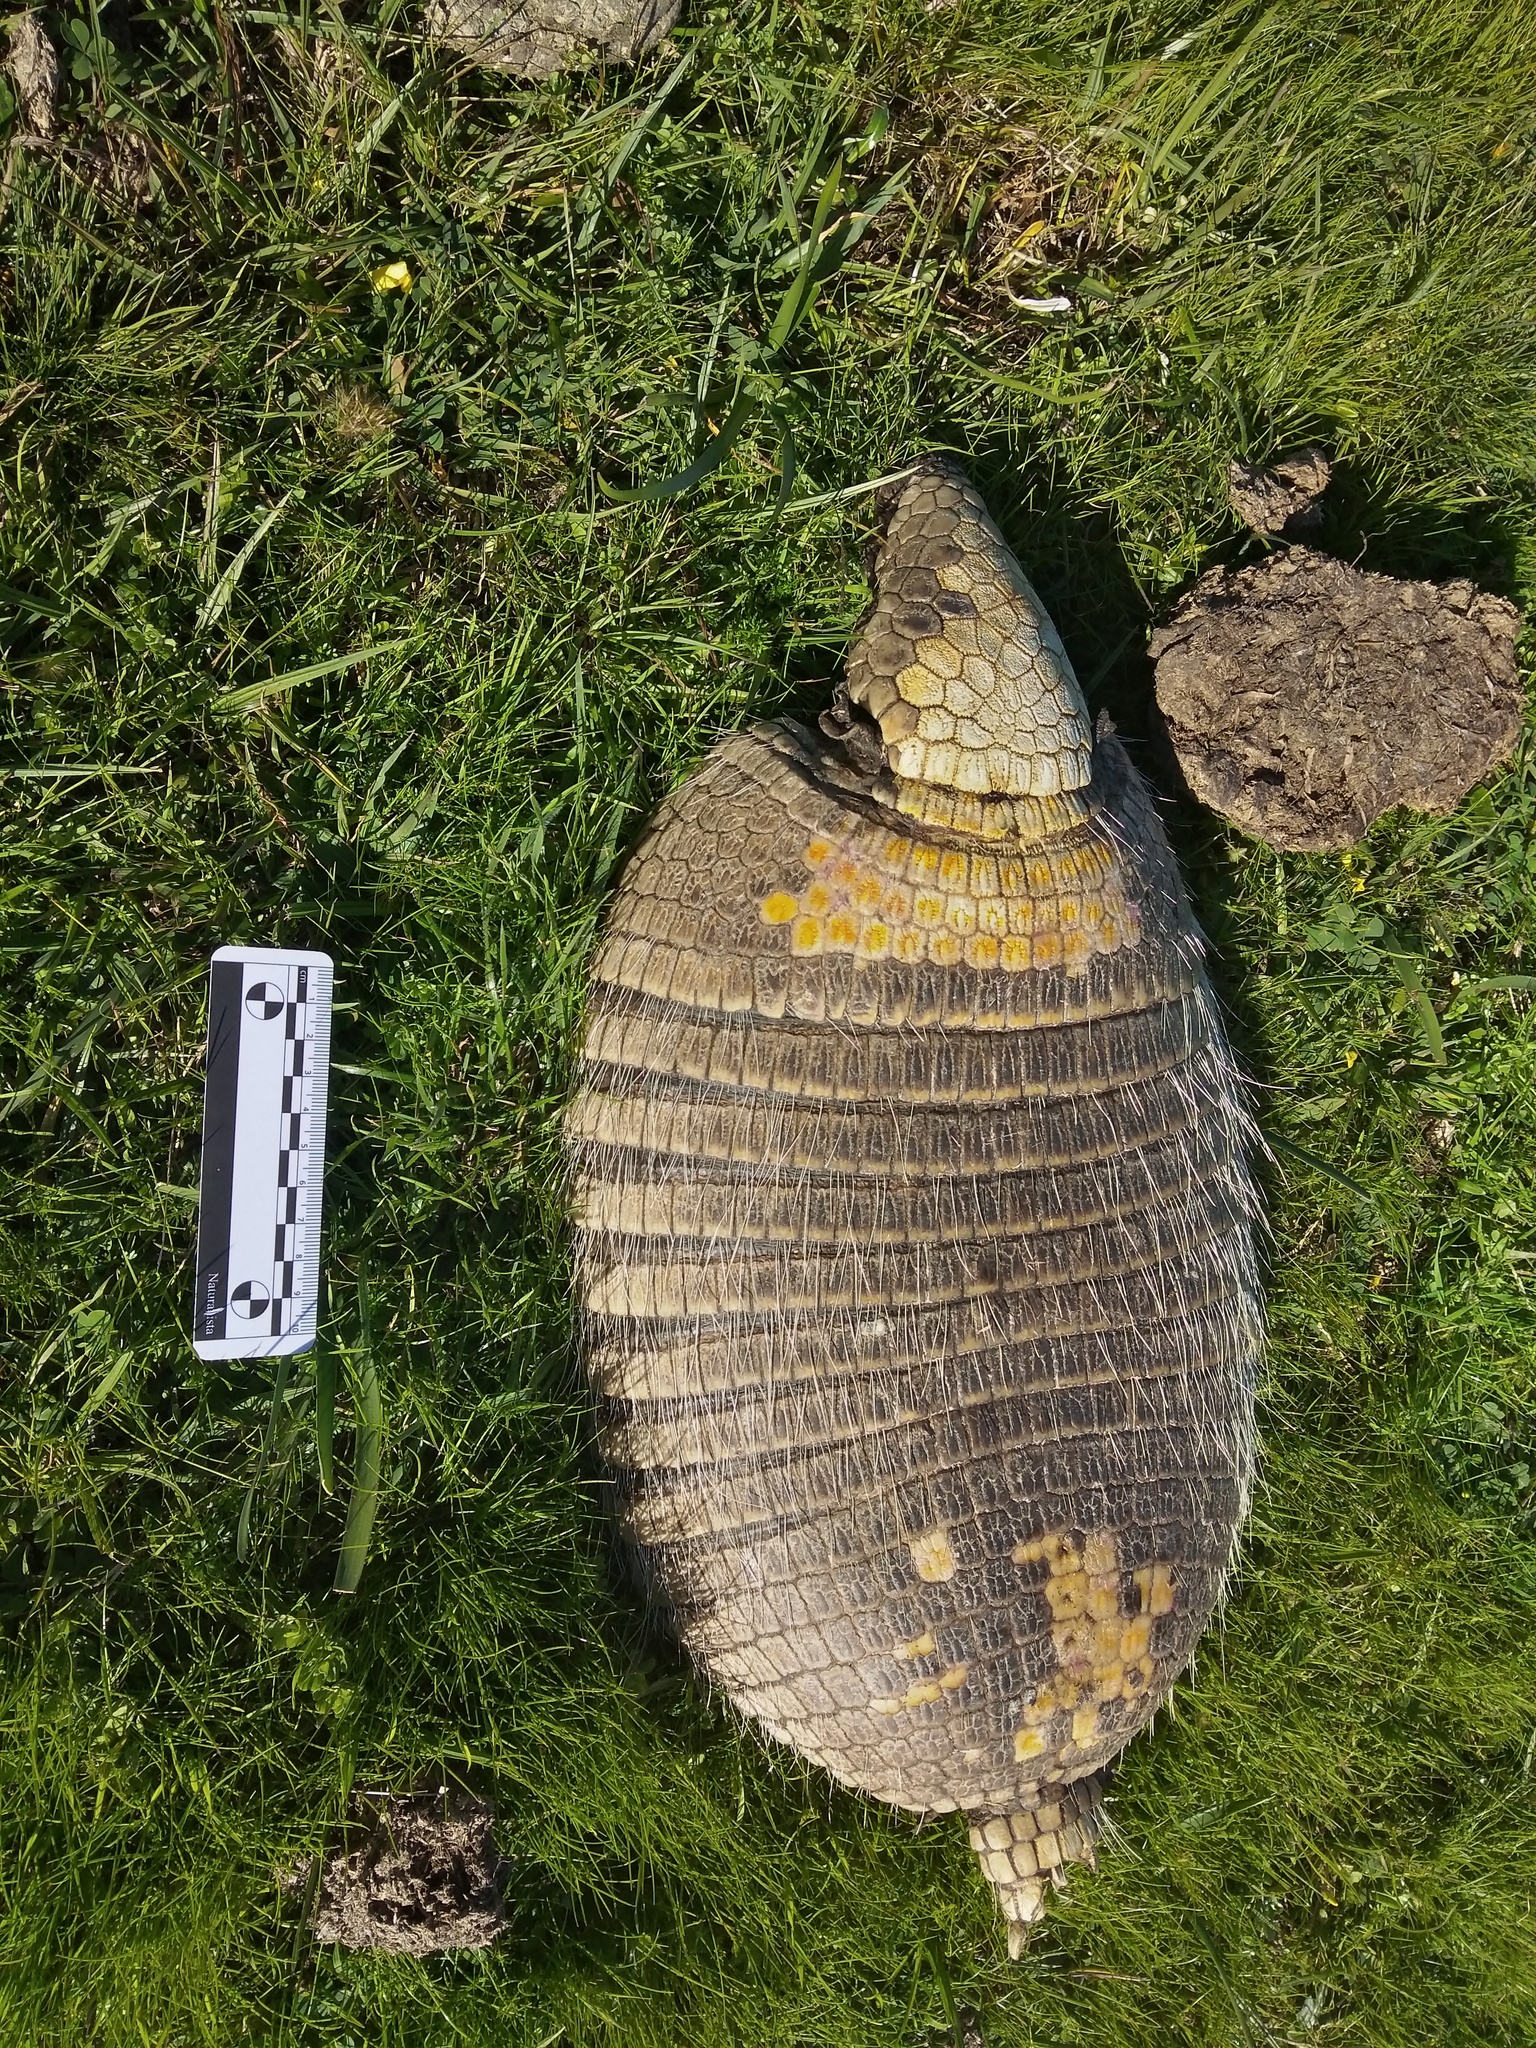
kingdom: Animalia
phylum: Chordata
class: Mammalia
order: Cingulata
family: Dasypodidae
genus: Euphractus
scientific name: Euphractus sexcinctus
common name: Six-banded armadillo
